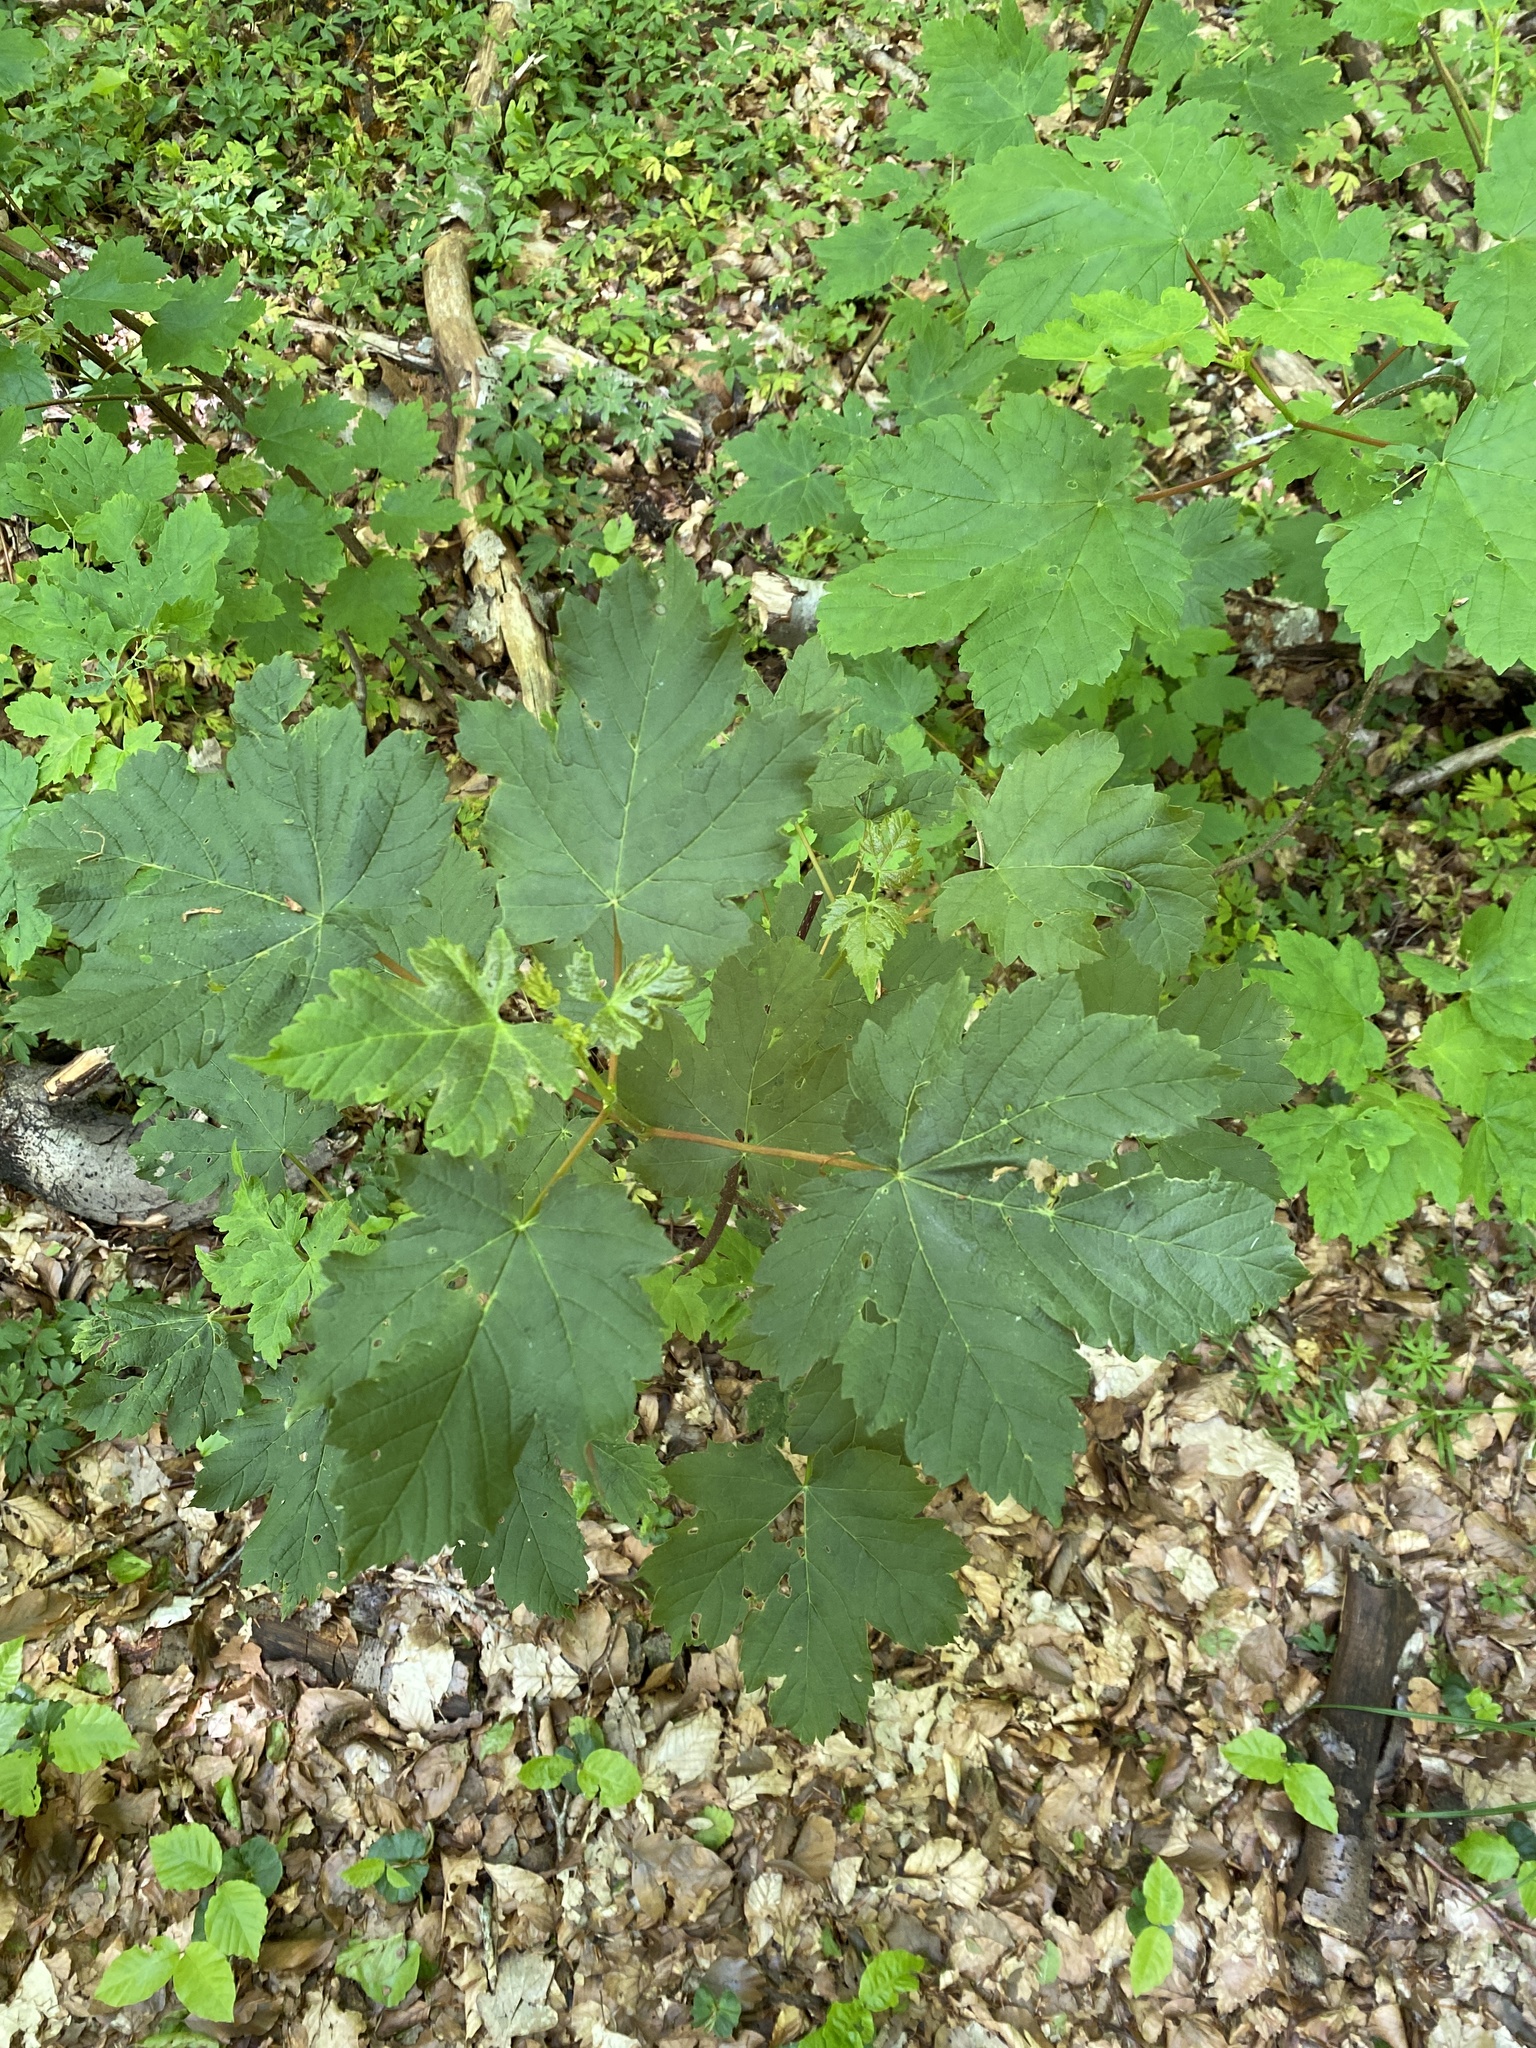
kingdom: Plantae
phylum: Tracheophyta
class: Magnoliopsida
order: Sapindales
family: Sapindaceae
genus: Acer
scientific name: Acer pseudoplatanus
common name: Sycamore
